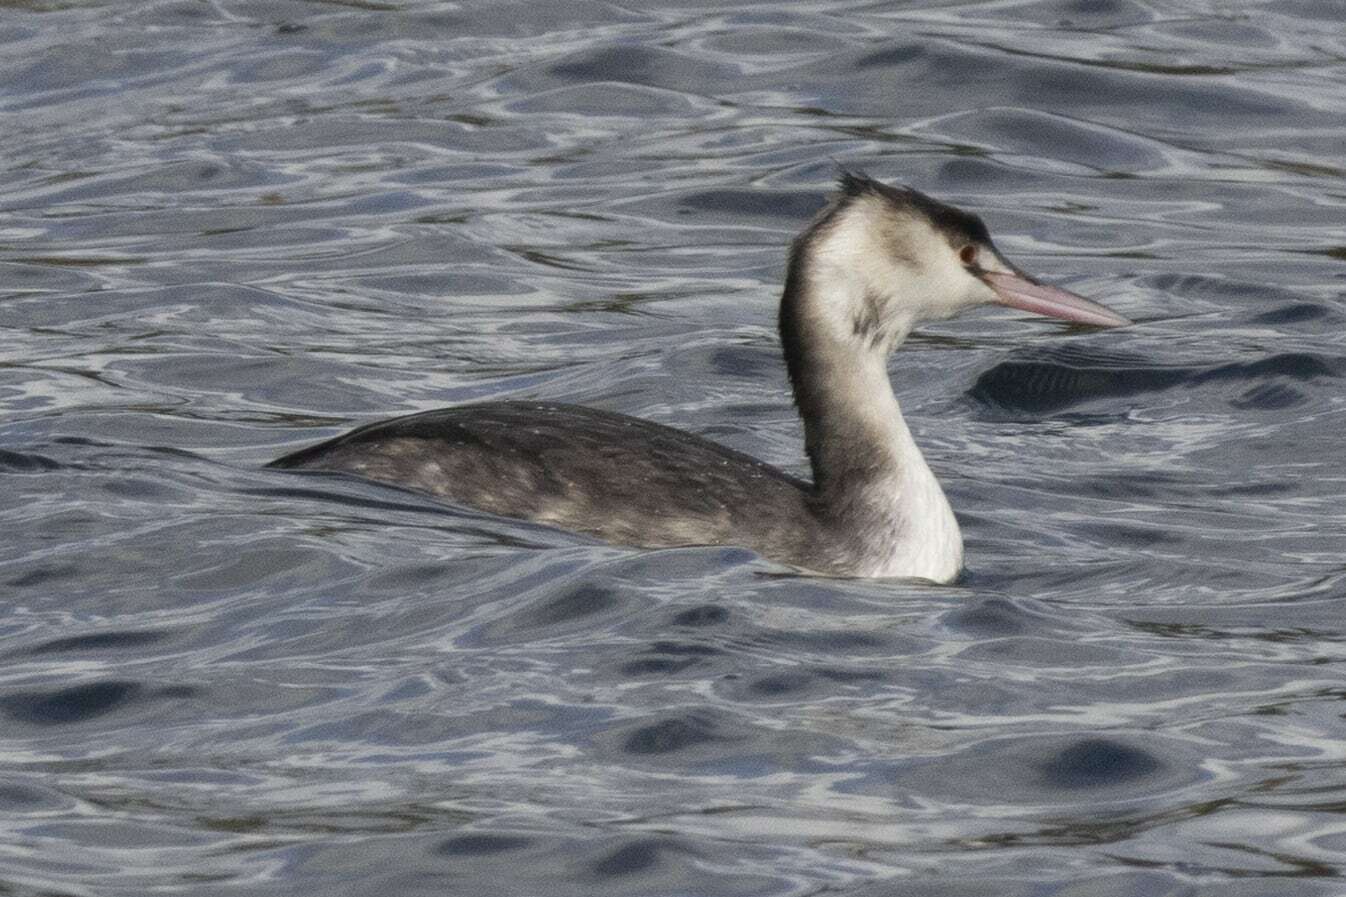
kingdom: Animalia
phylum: Chordata
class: Aves
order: Podicipediformes
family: Podicipedidae
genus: Podiceps
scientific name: Podiceps cristatus
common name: Great crested grebe
